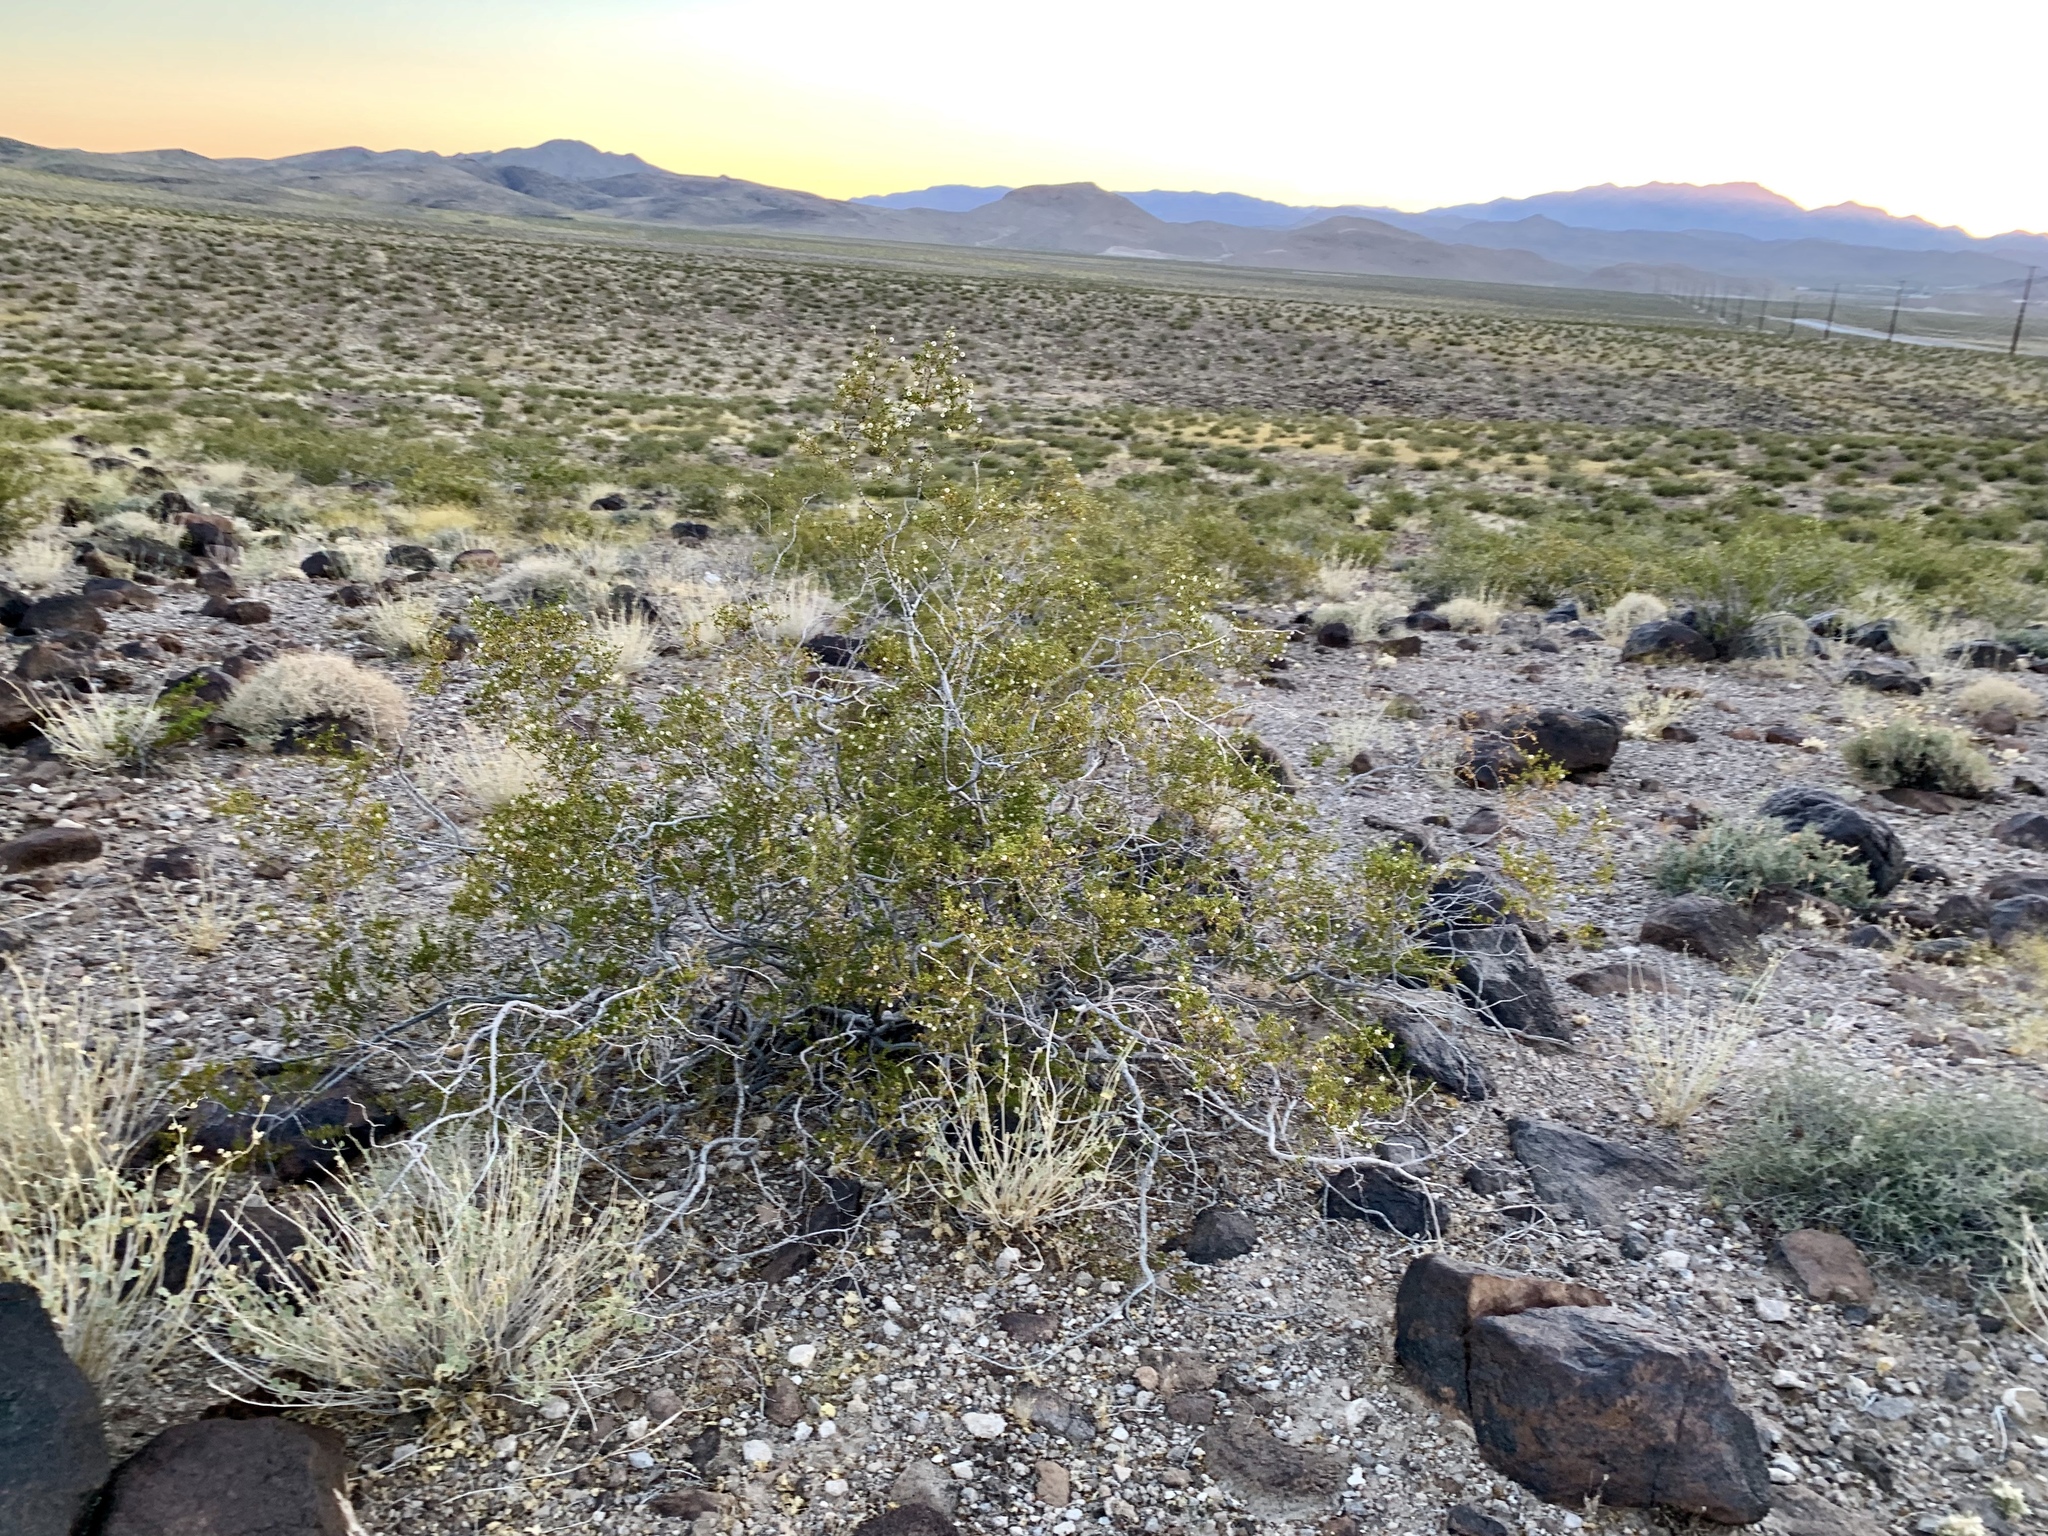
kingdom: Plantae
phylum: Tracheophyta
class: Magnoliopsida
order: Zygophyllales
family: Zygophyllaceae
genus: Larrea
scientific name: Larrea tridentata
